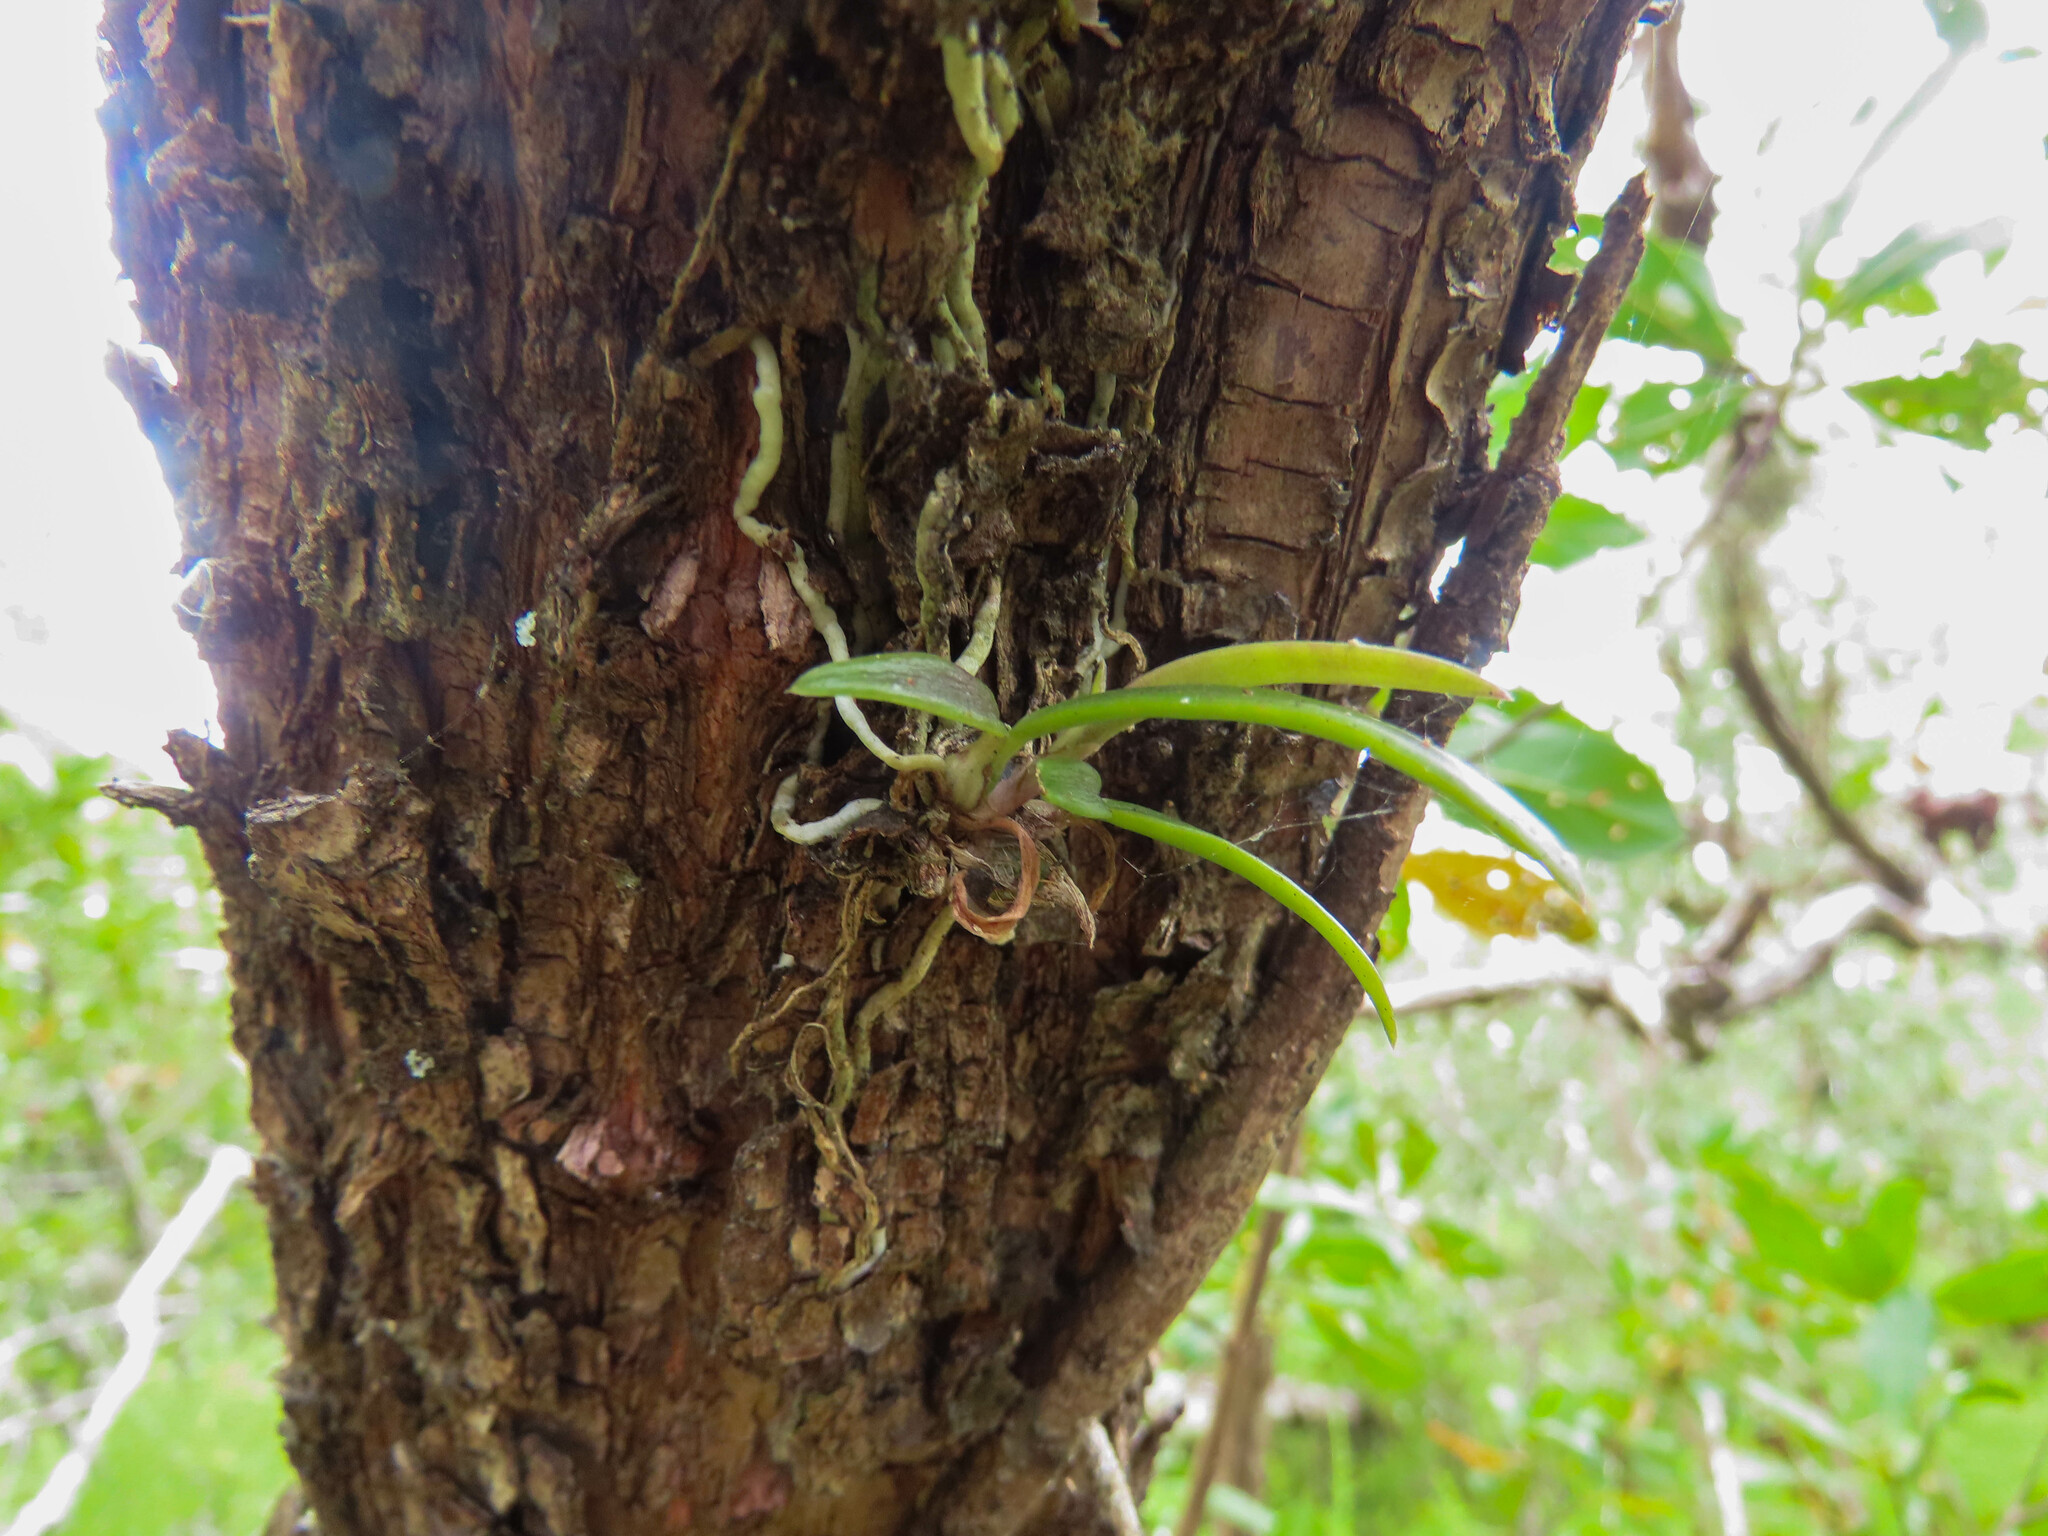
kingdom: Plantae
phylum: Tracheophyta
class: Liliopsida
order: Asparagales
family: Orchidaceae
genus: Encyclia
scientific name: Encyclia tampensis
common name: Florida butterfly orchid
